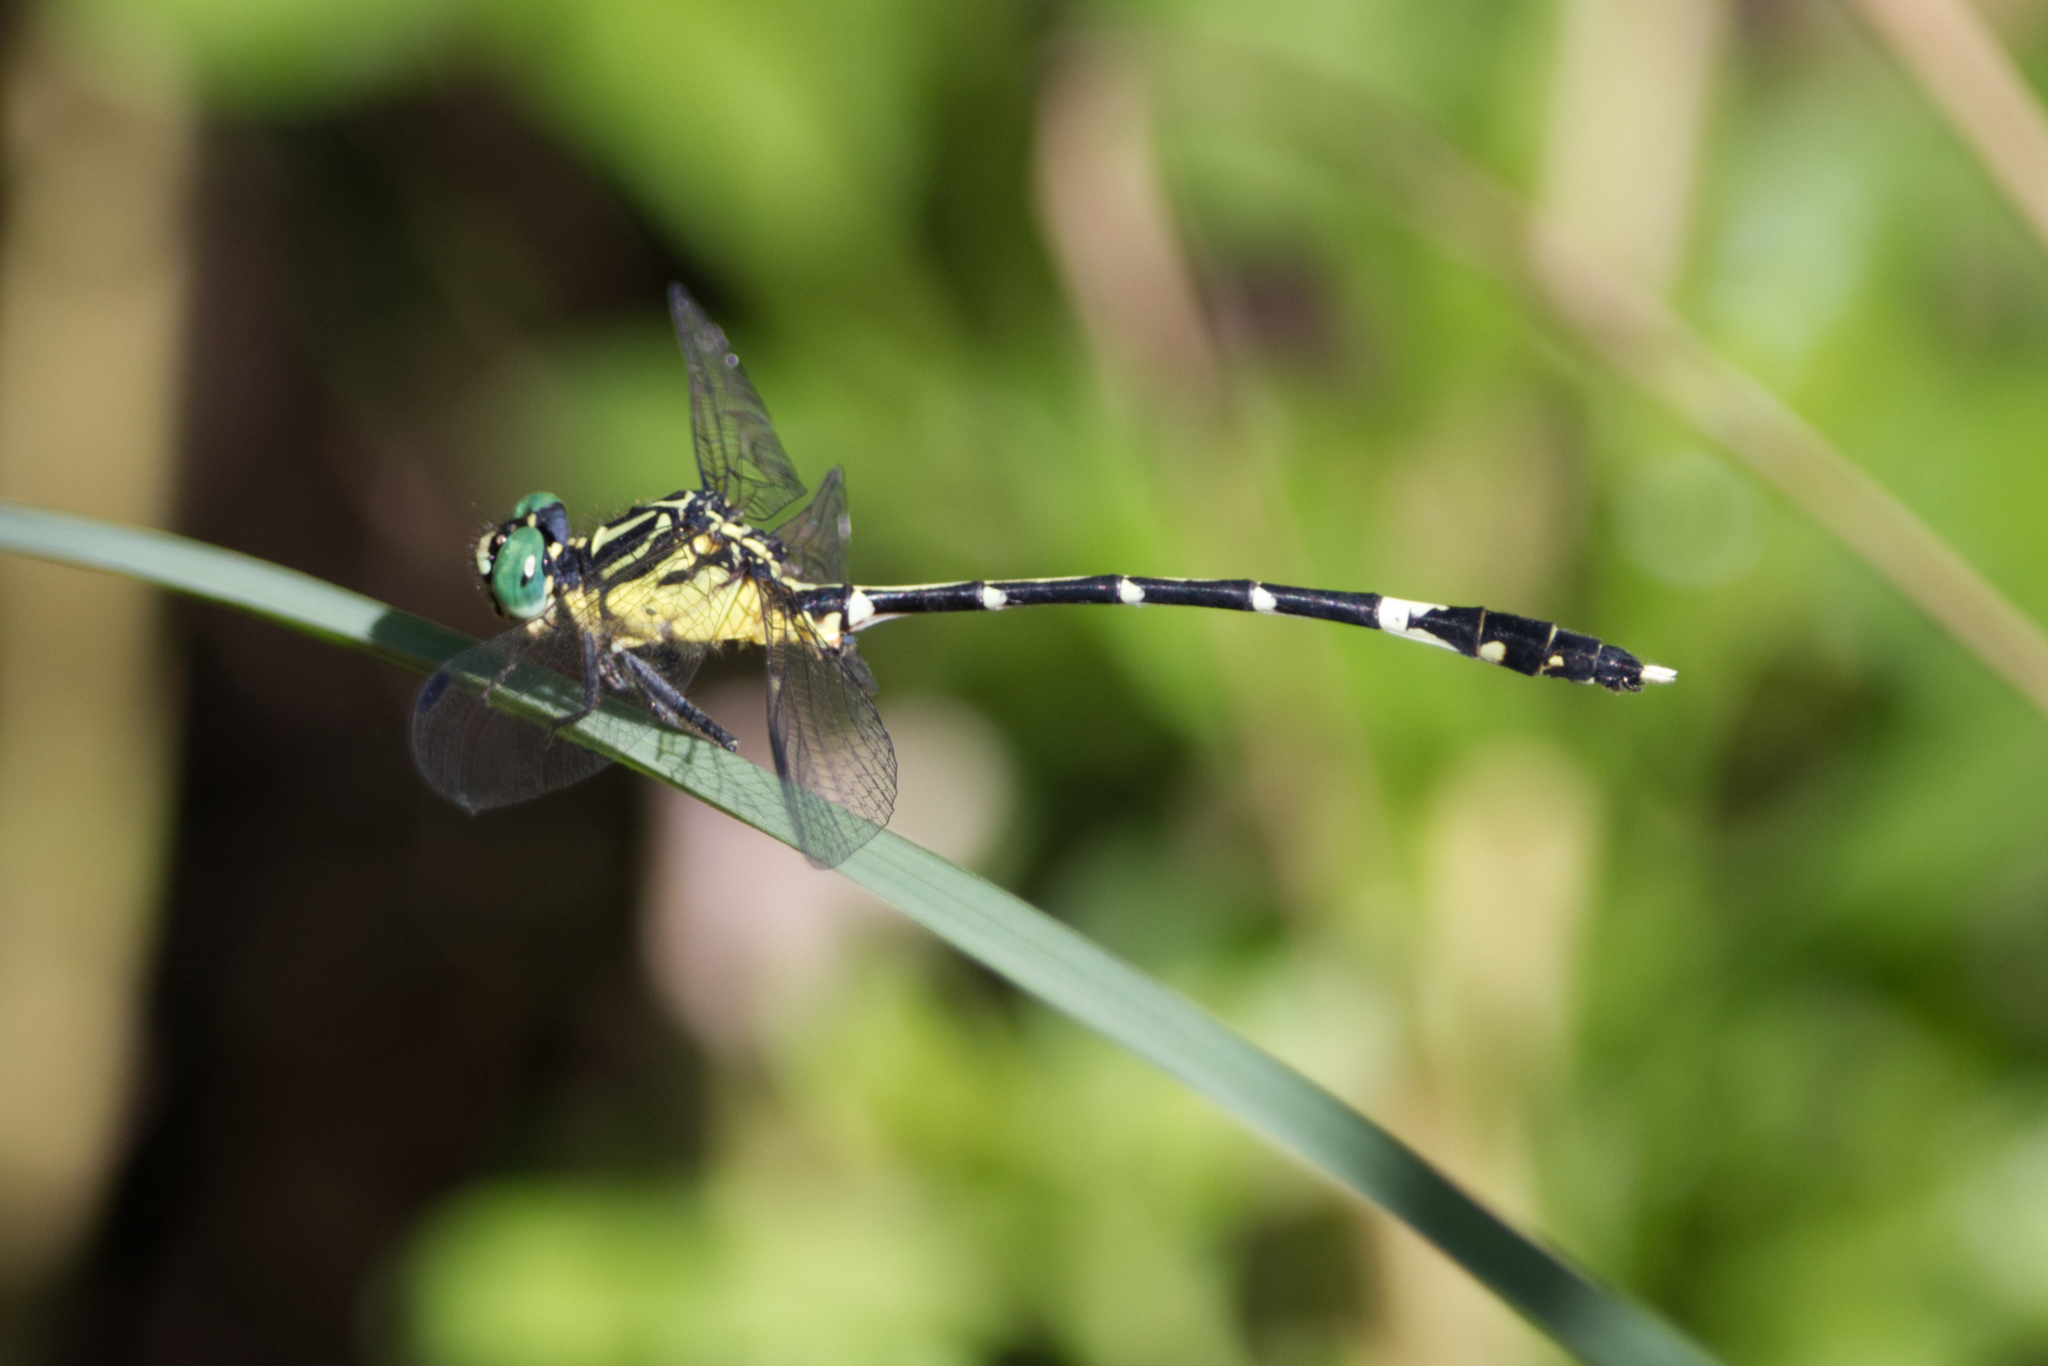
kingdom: Animalia
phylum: Arthropoda
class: Insecta
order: Odonata
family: Gomphidae
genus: Austrogomphus
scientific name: Austrogomphus amphiclitus
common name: Pale hunter
